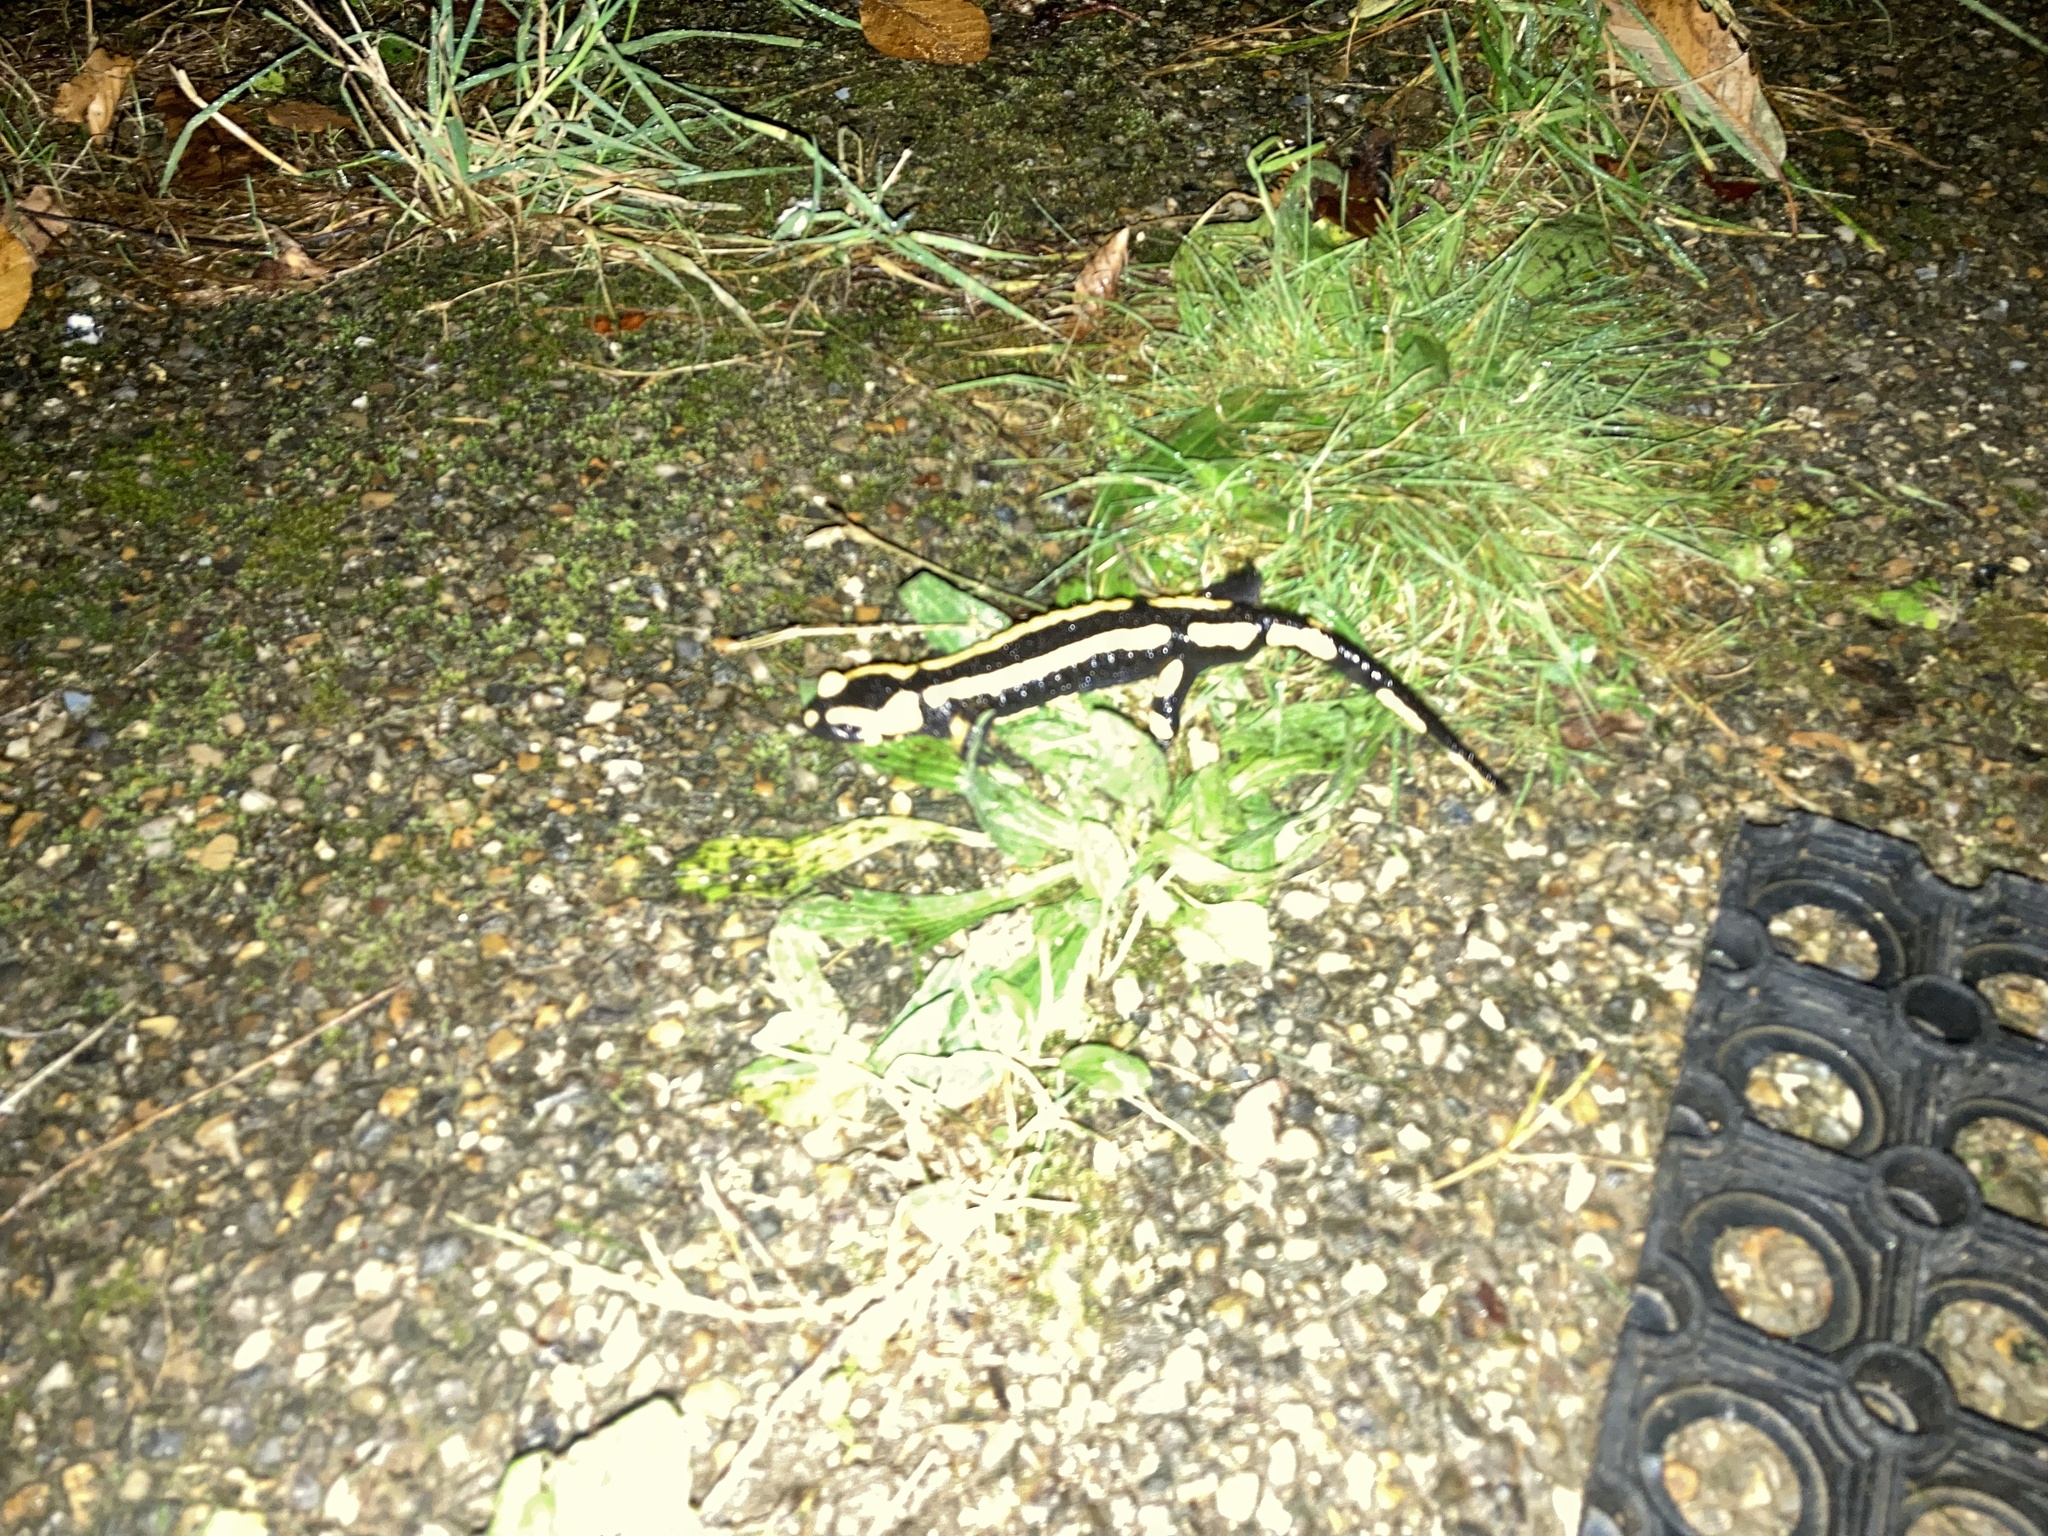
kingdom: Animalia
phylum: Chordata
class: Amphibia
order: Caudata
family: Salamandridae
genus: Salamandra
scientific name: Salamandra salamandra
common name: Fire salamander
